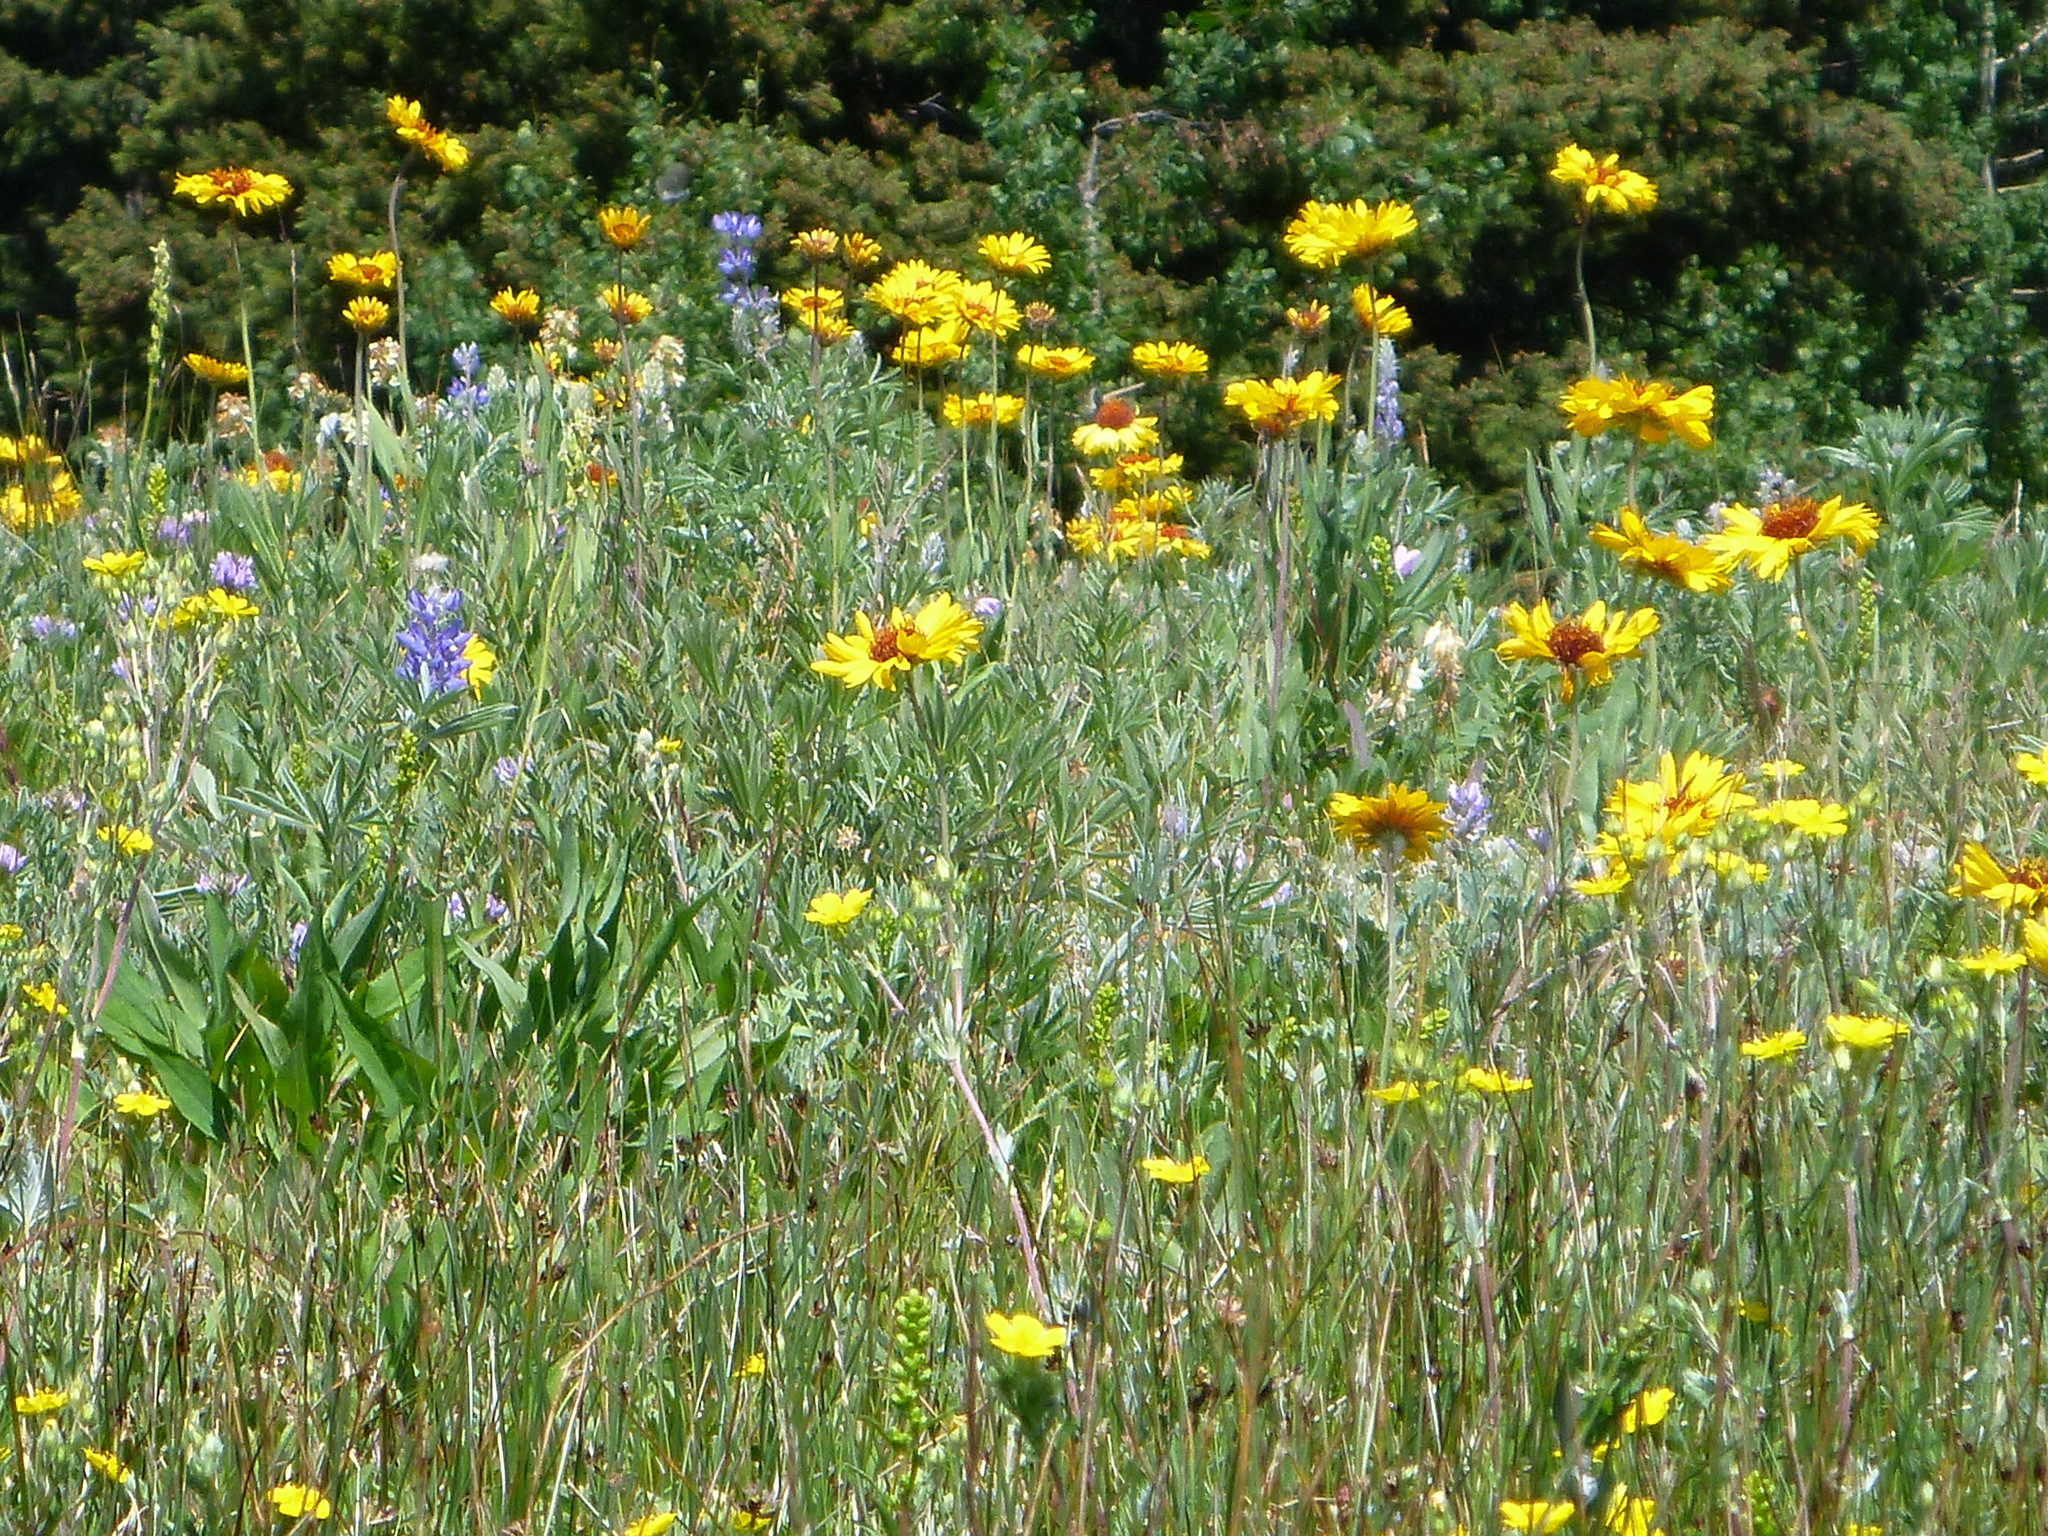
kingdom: Plantae
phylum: Tracheophyta
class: Magnoliopsida
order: Asterales
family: Asteraceae
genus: Gaillardia
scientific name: Gaillardia aristata
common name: Blanket-flower
